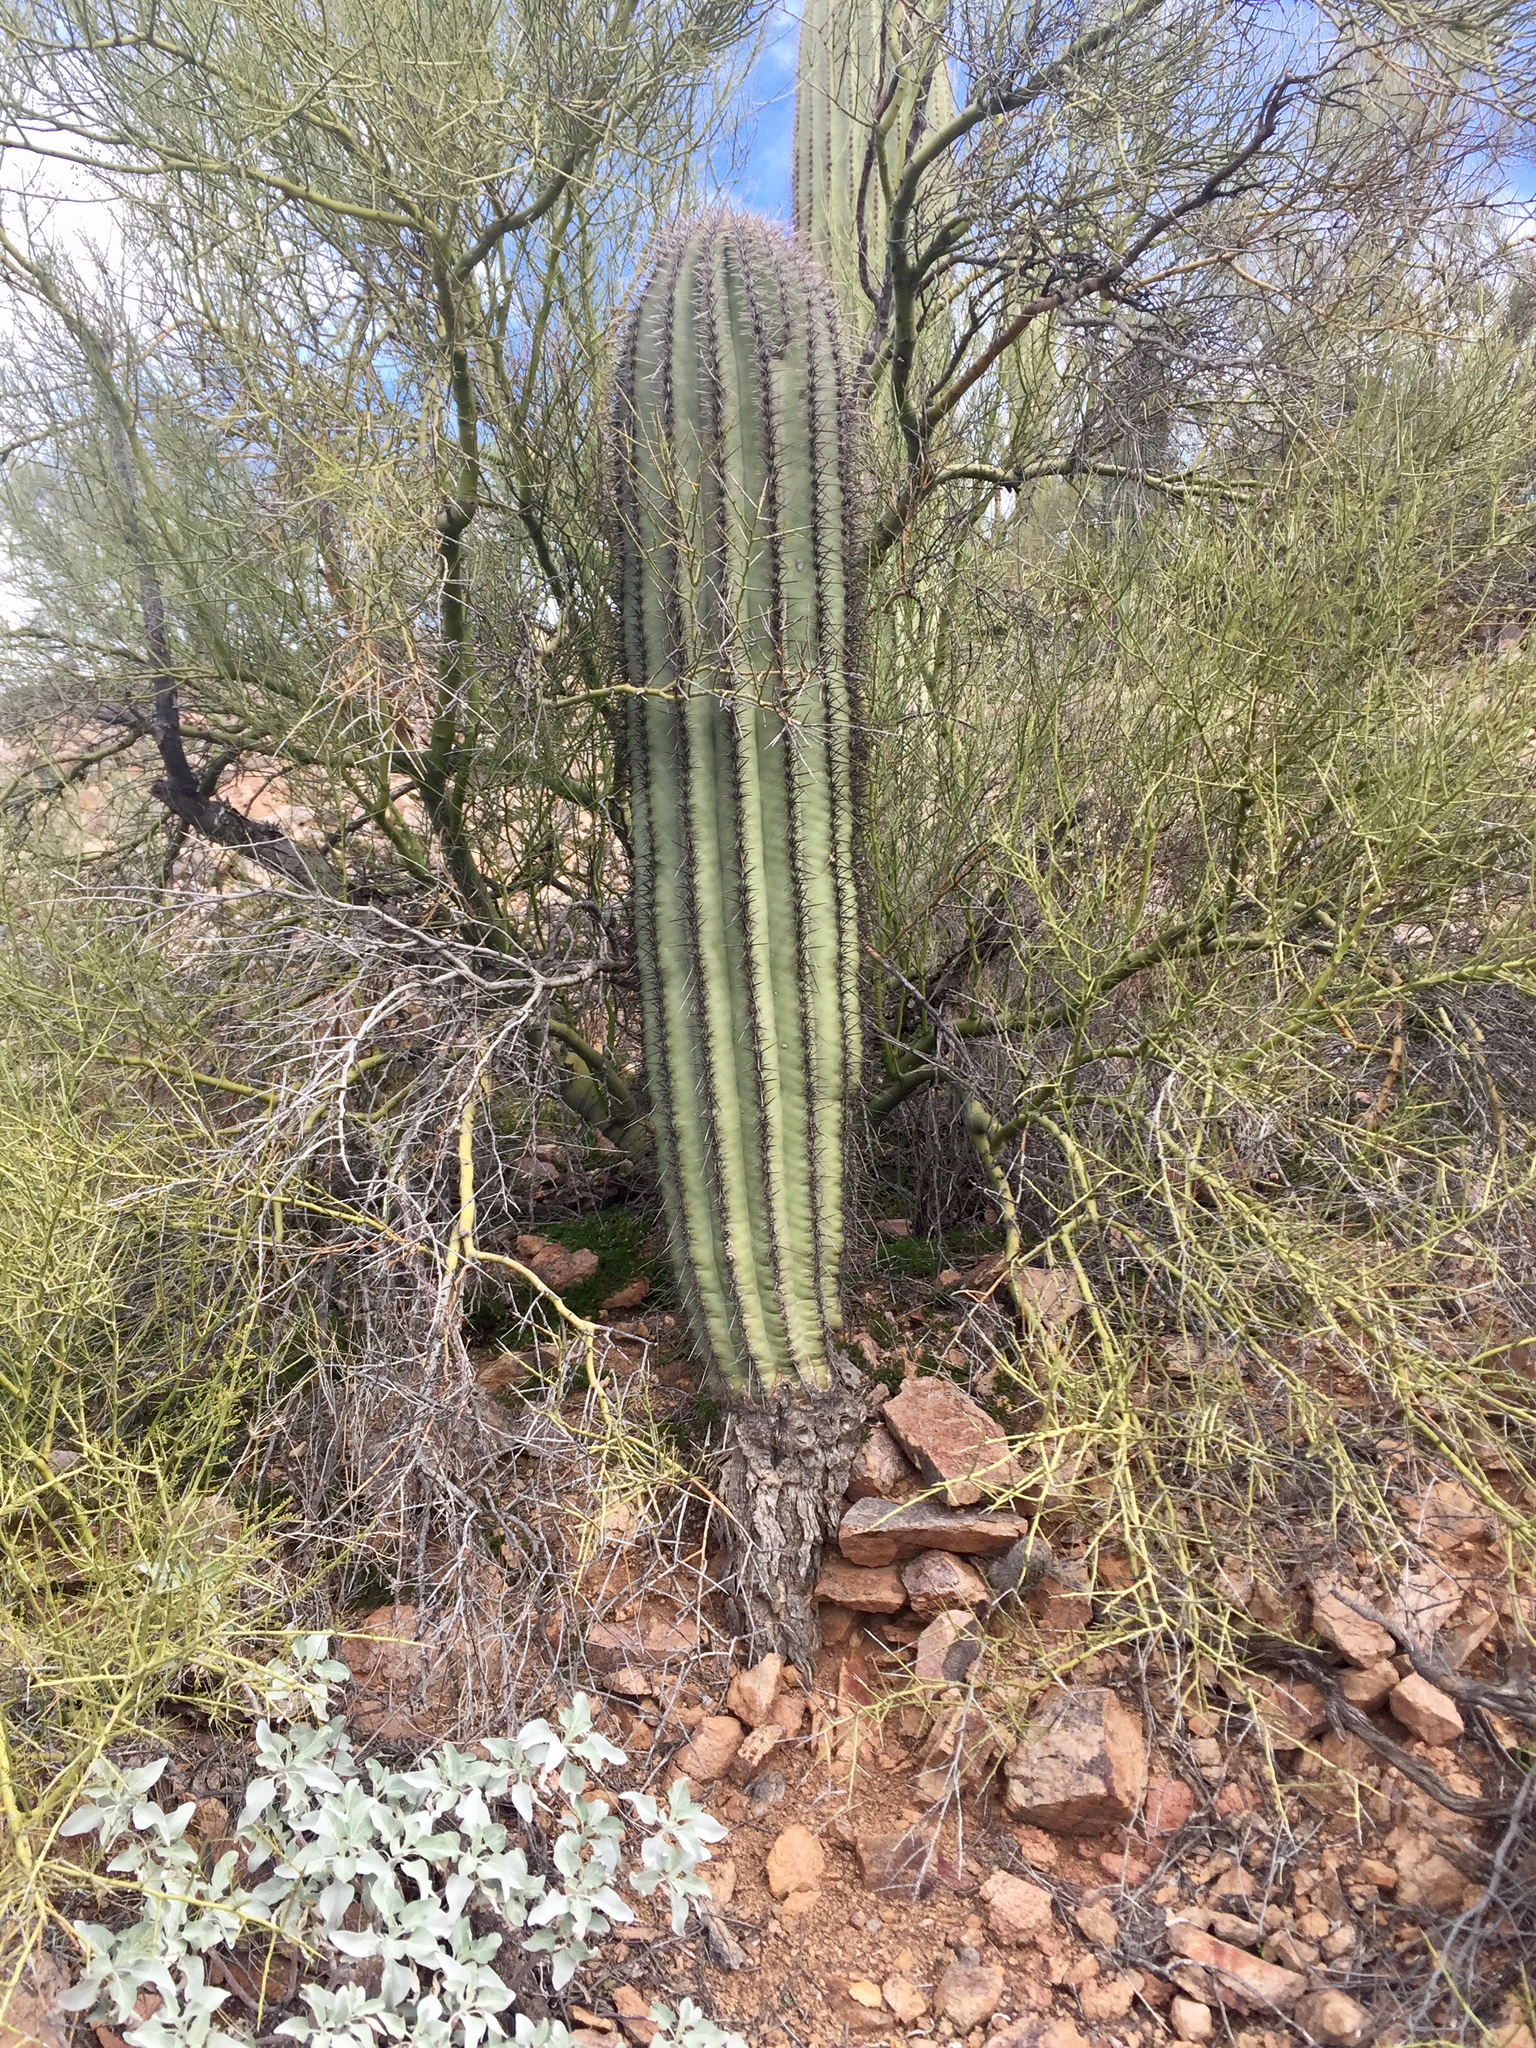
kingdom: Plantae
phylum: Tracheophyta
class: Magnoliopsida
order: Caryophyllales
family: Cactaceae
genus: Carnegiea
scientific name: Carnegiea gigantea
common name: Saguaro
